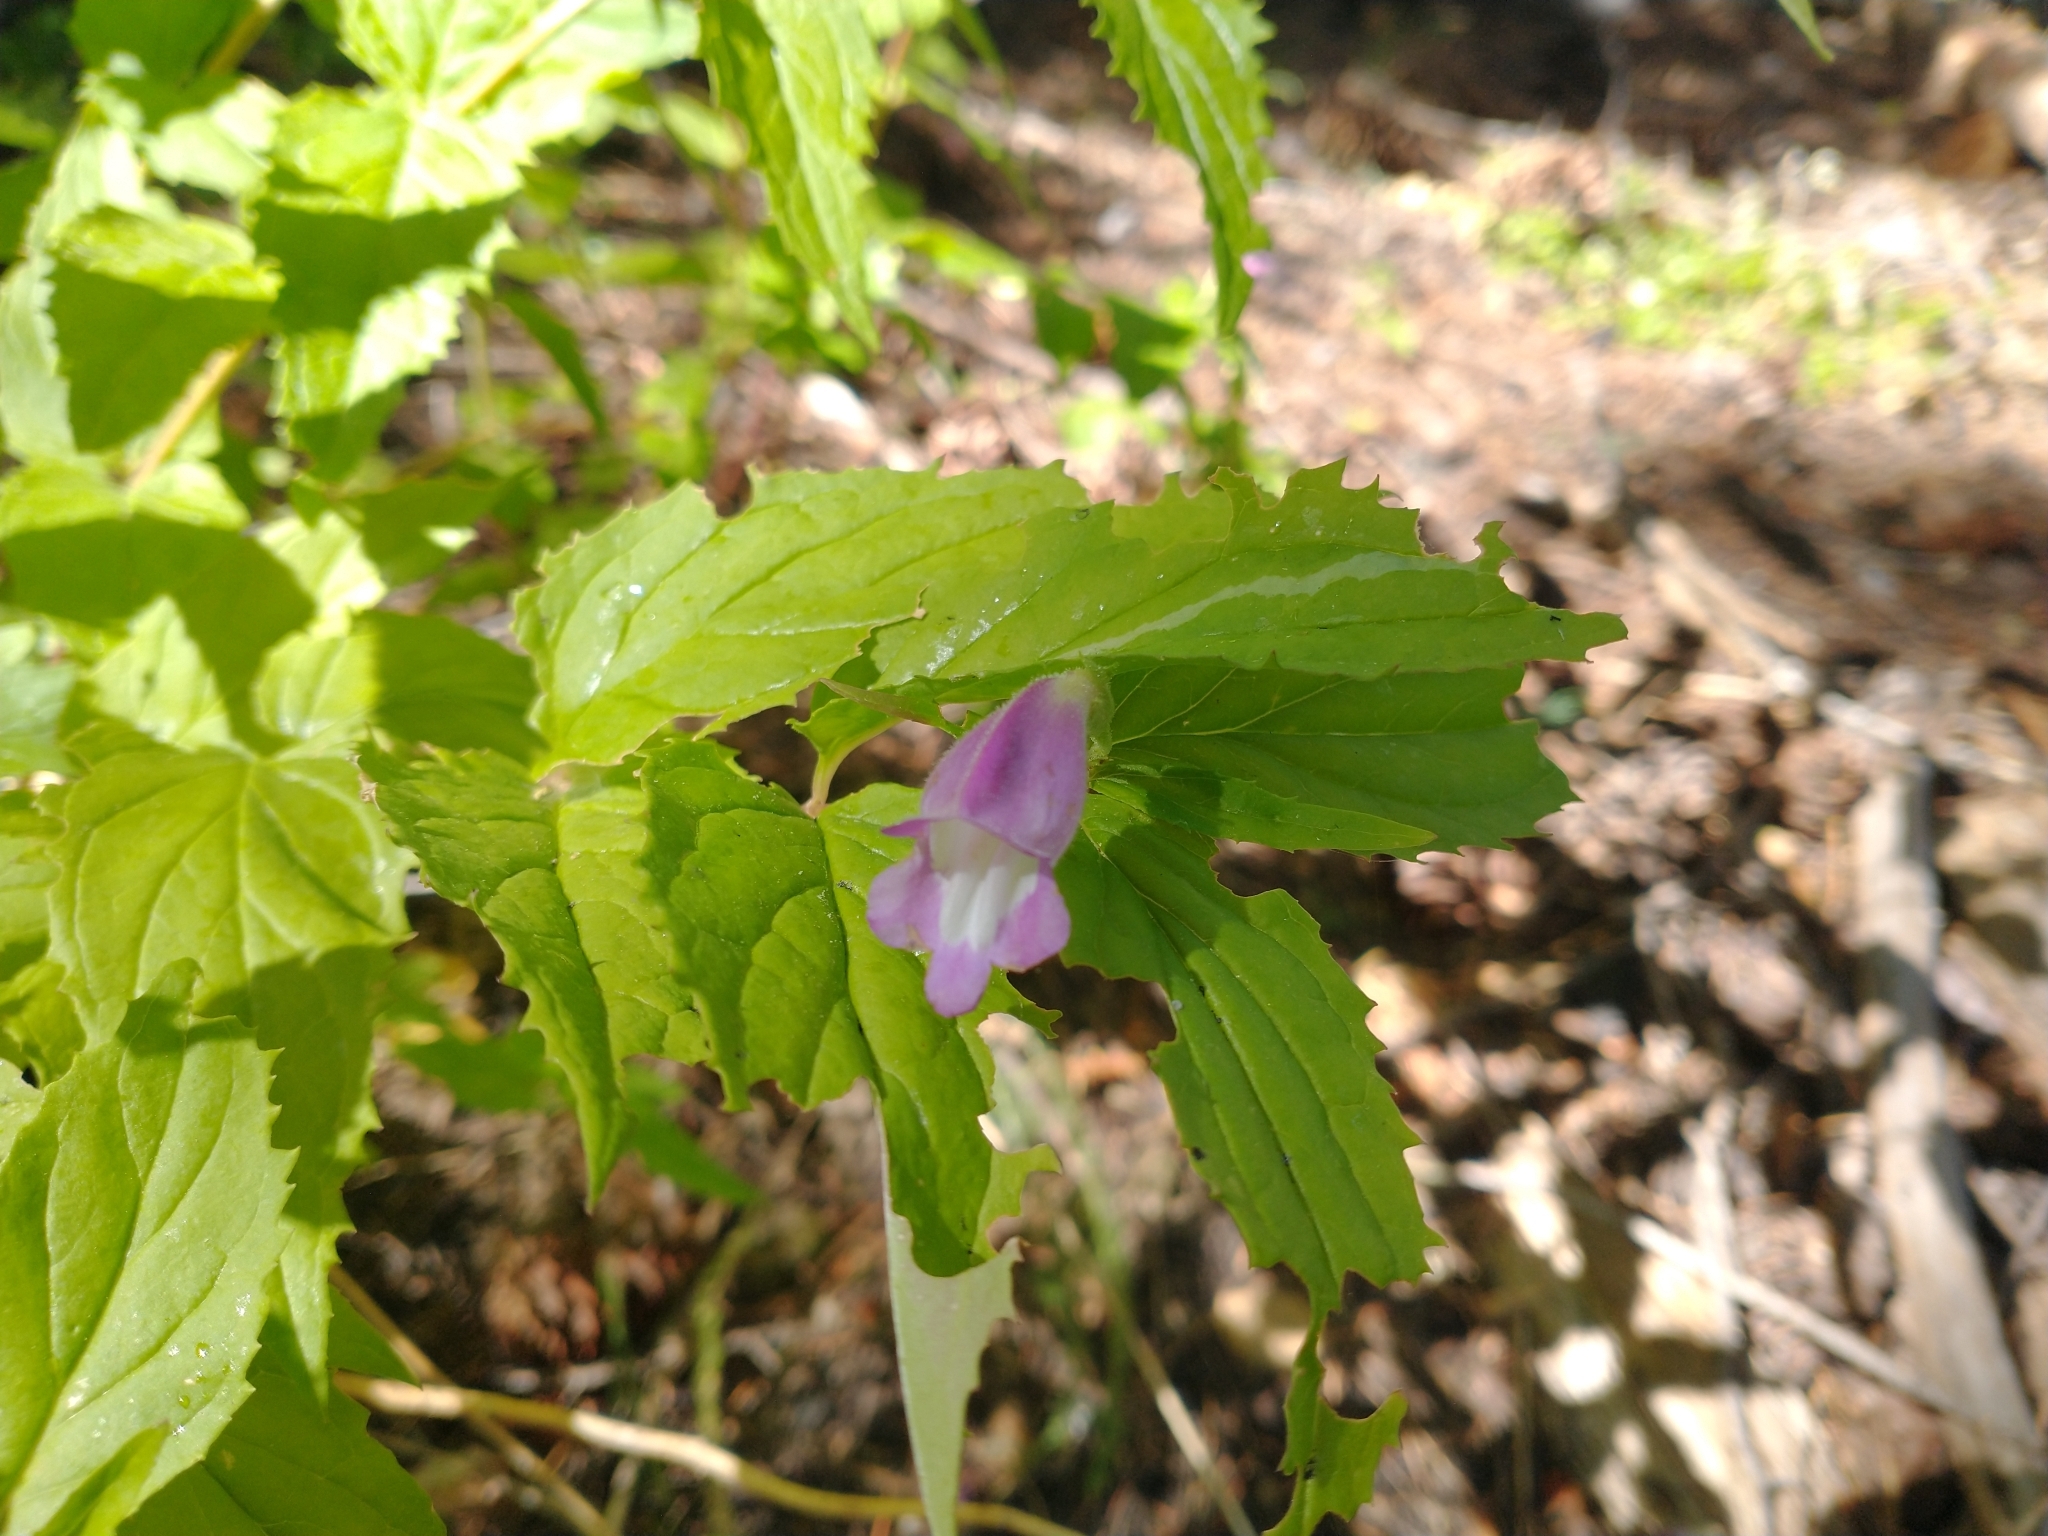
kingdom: Plantae
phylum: Tracheophyta
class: Magnoliopsida
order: Lamiales
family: Plantaginaceae
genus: Nothochelone
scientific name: Nothochelone nemorosa
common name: Woodland beardtongue
